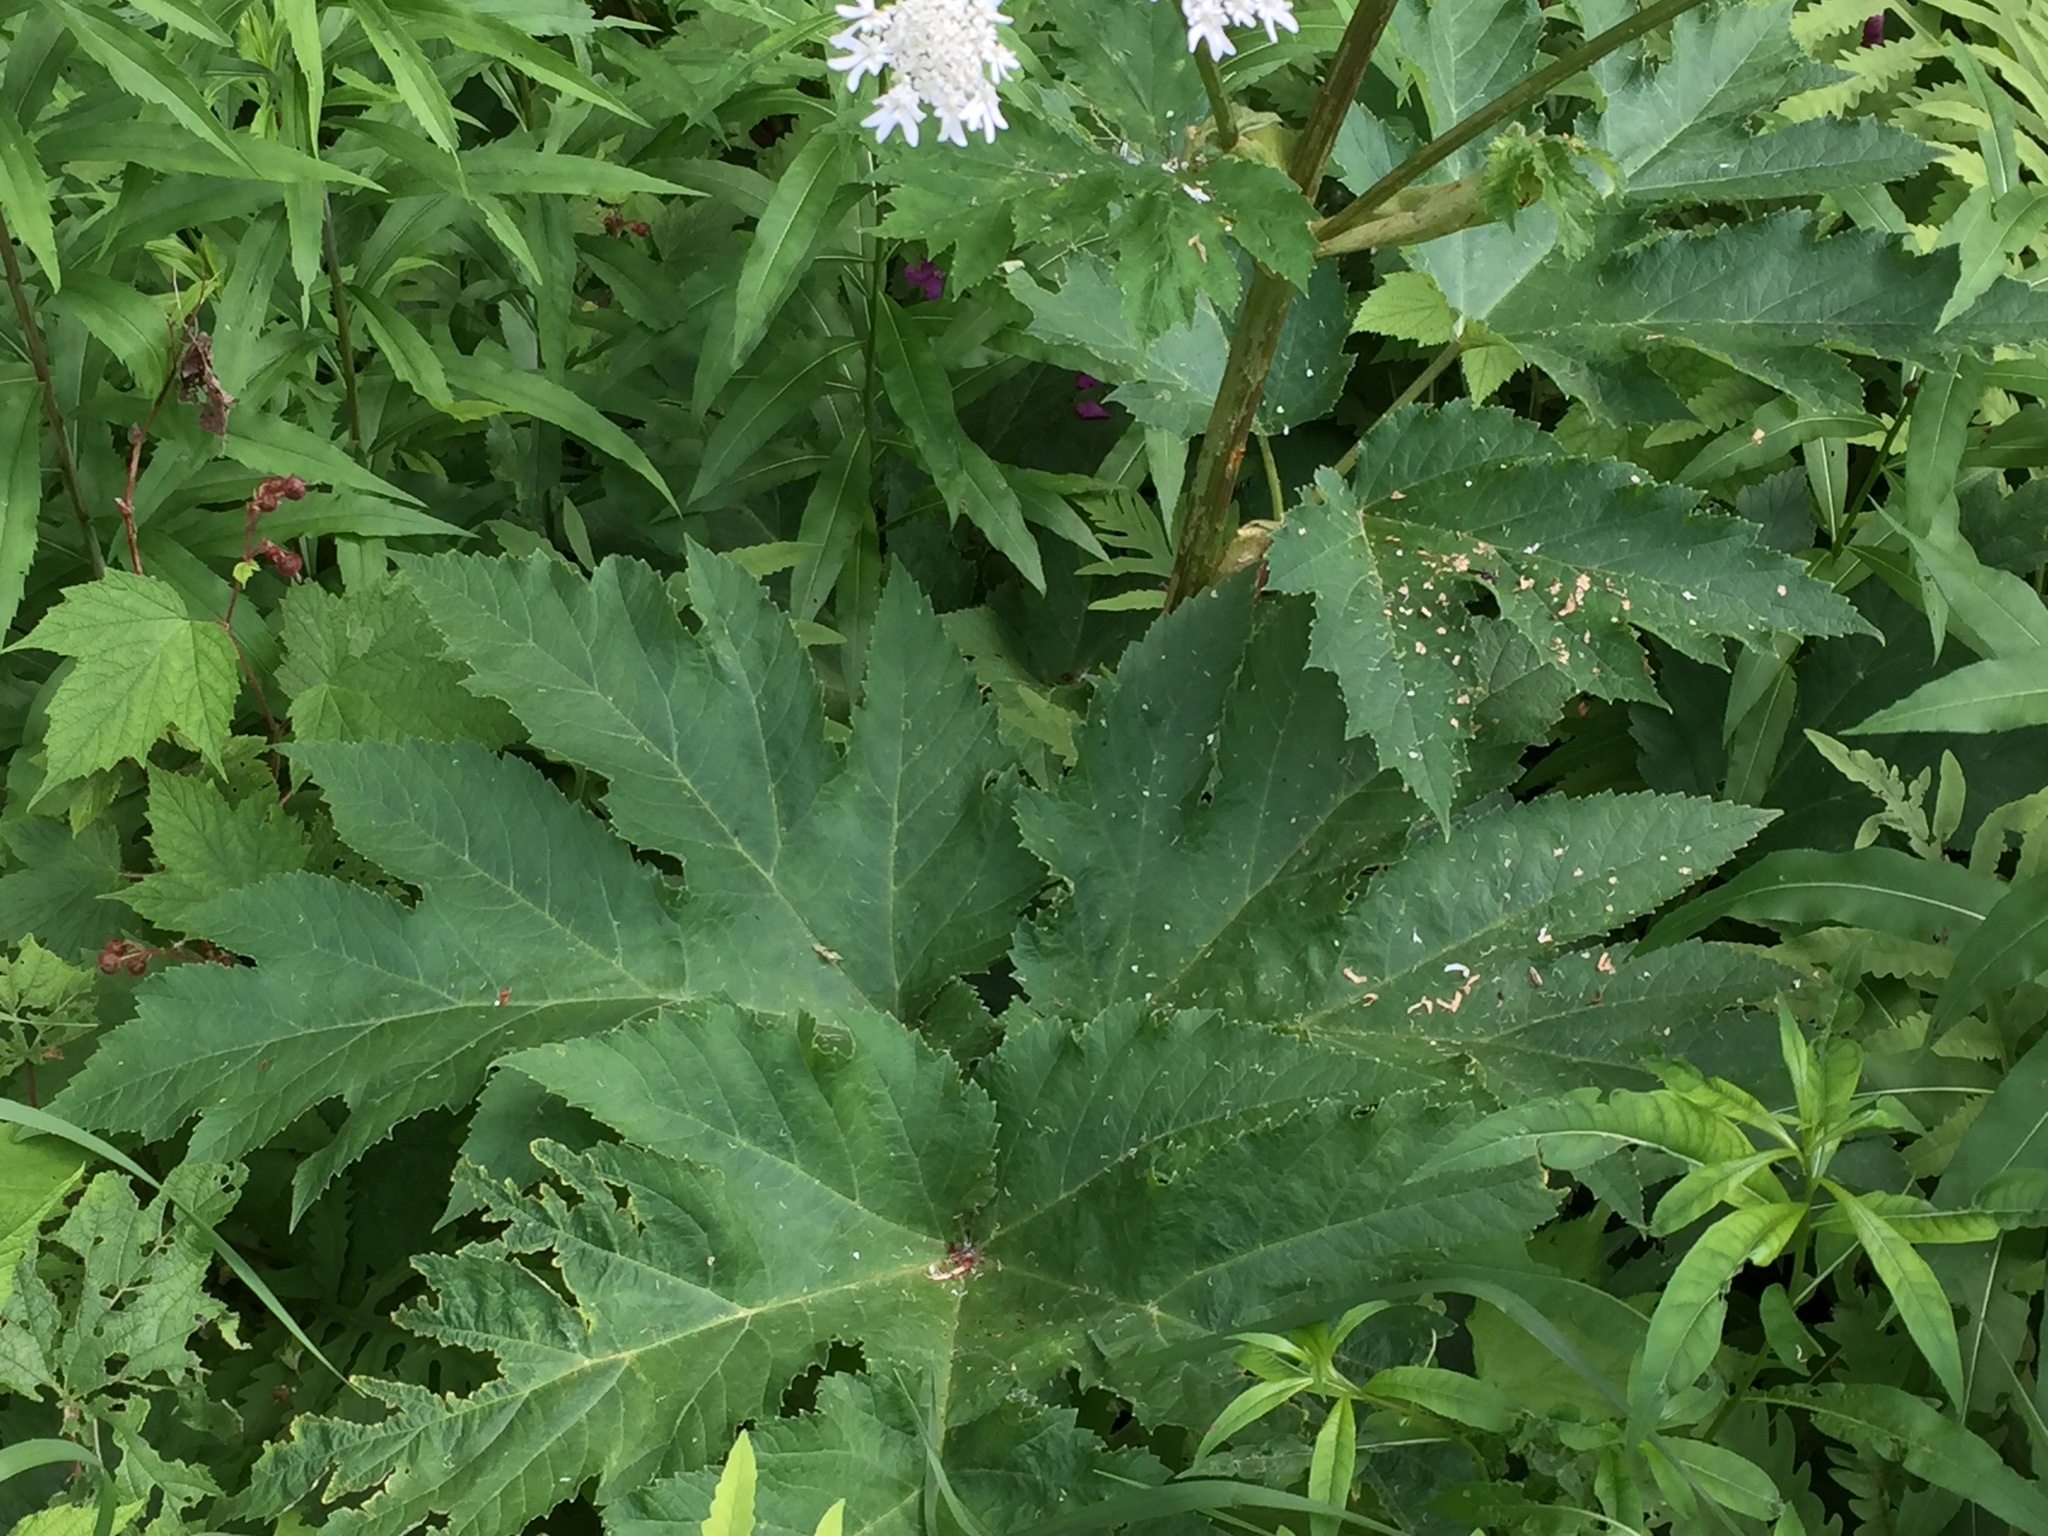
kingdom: Plantae
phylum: Tracheophyta
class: Magnoliopsida
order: Apiales
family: Apiaceae
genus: Heracleum
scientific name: Heracleum maximum
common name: American cow parsnip
